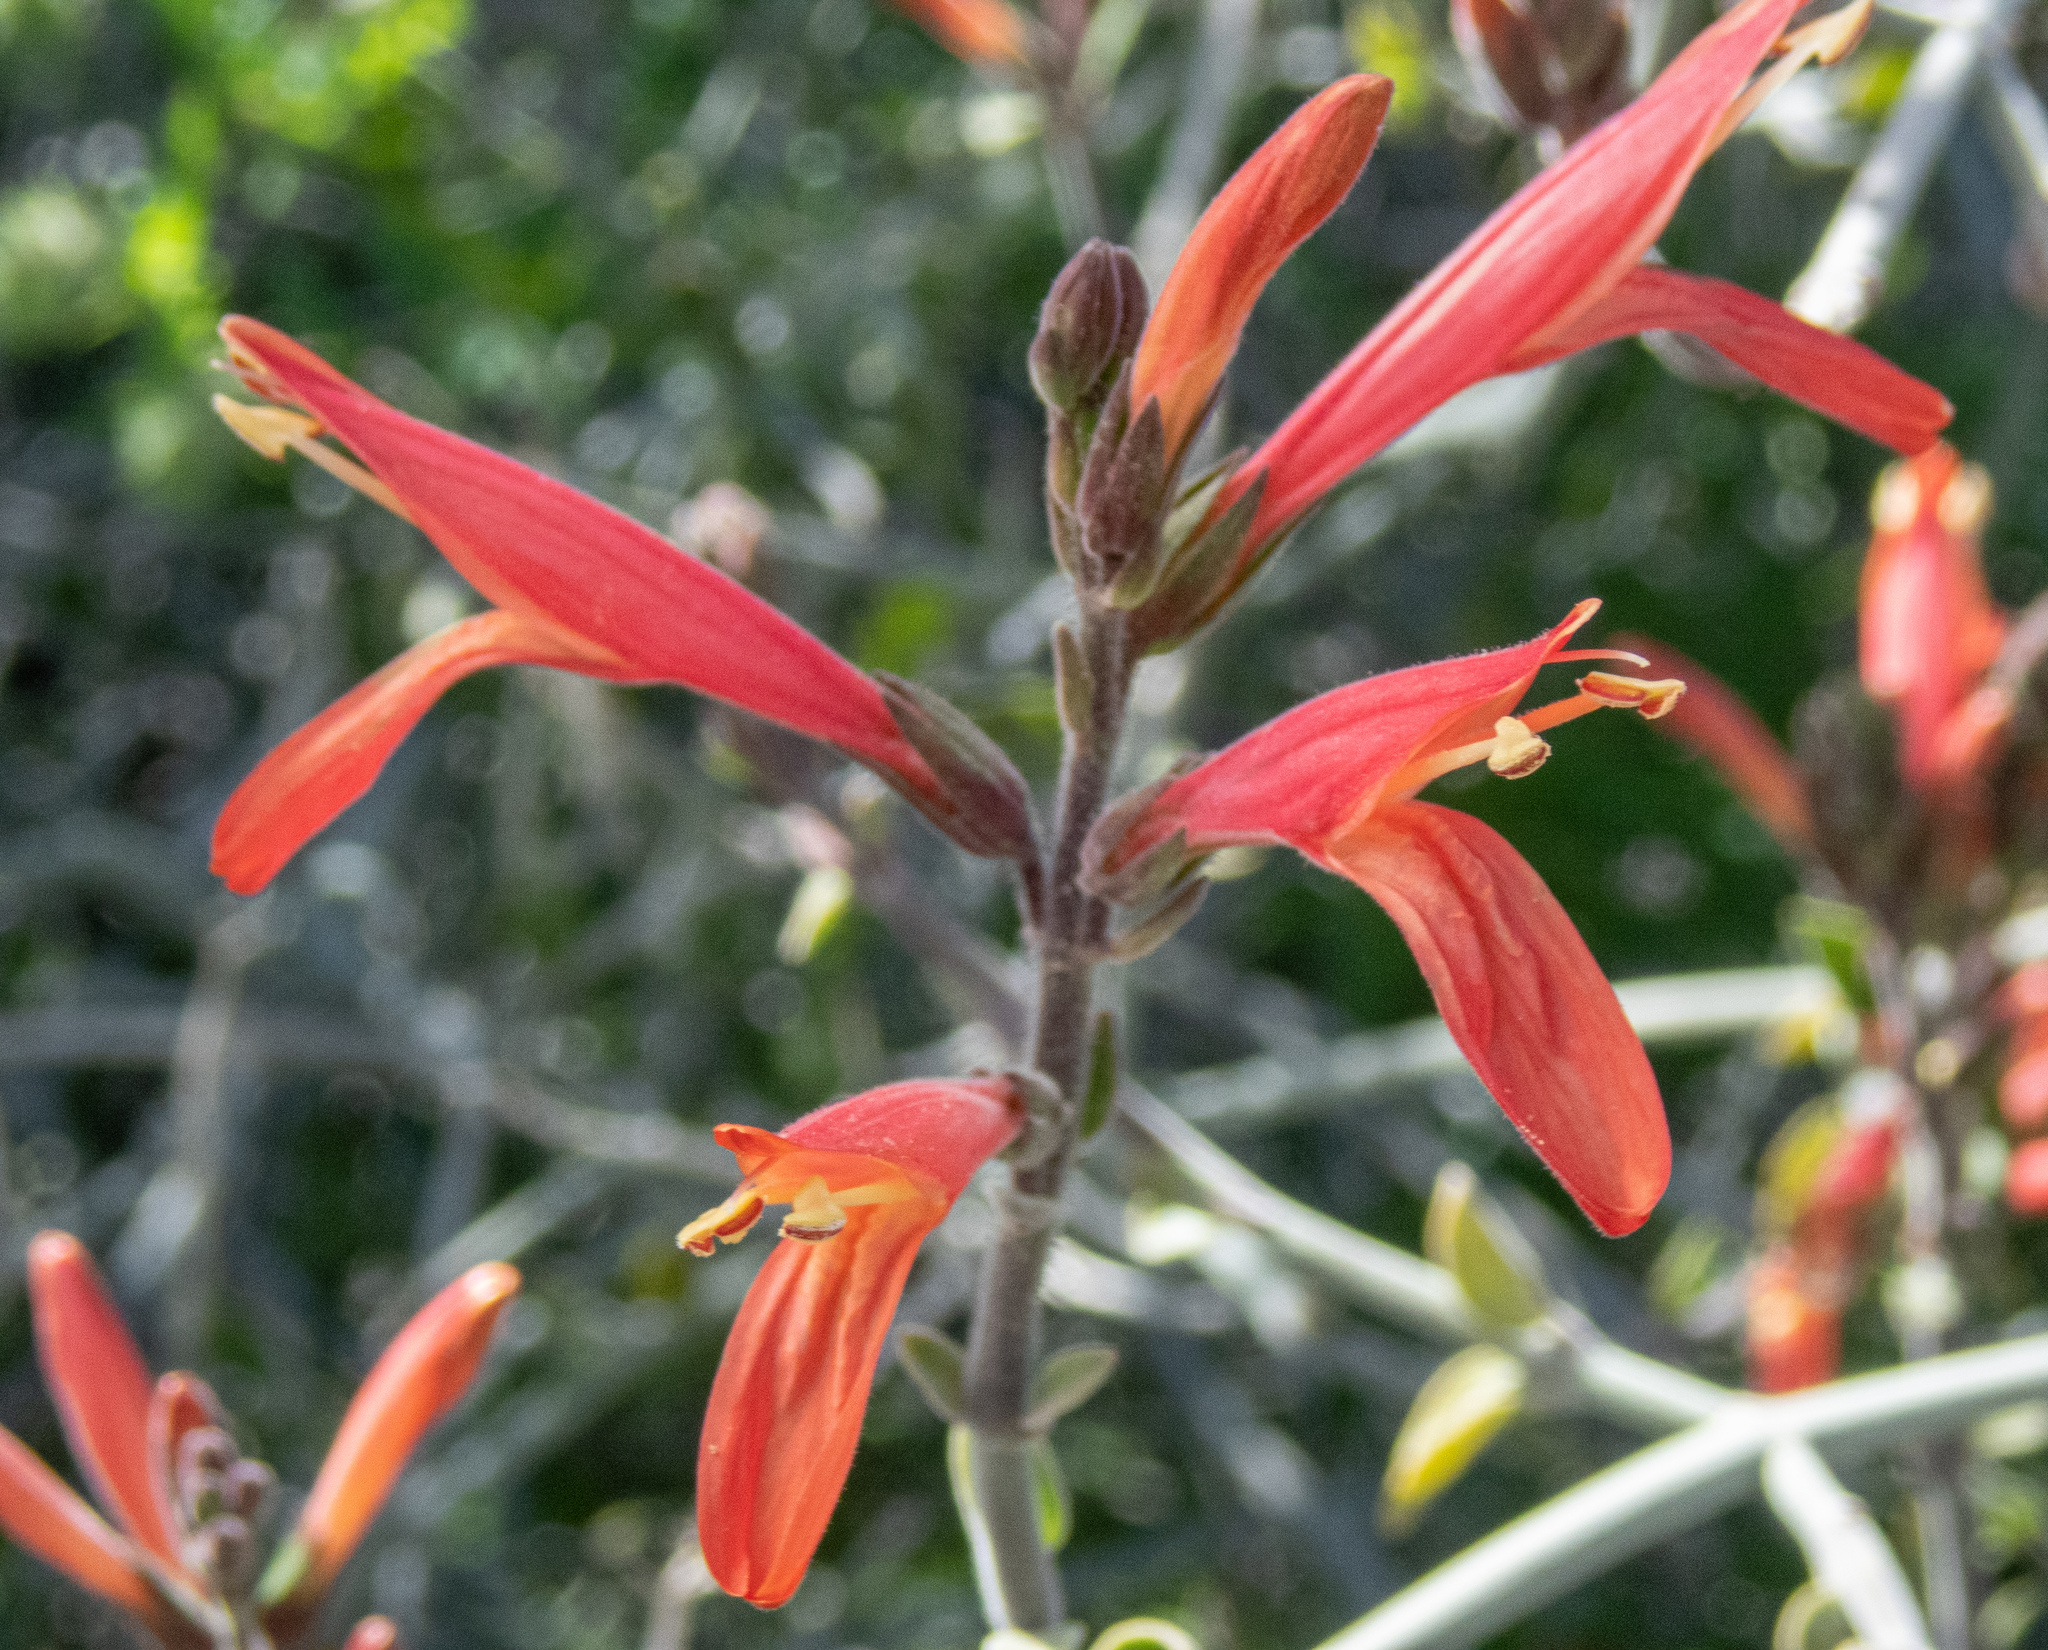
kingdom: Plantae
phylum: Tracheophyta
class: Magnoliopsida
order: Lamiales
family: Acanthaceae
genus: Justicia
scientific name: Justicia californica
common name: Chuparosa-honeysuckle
